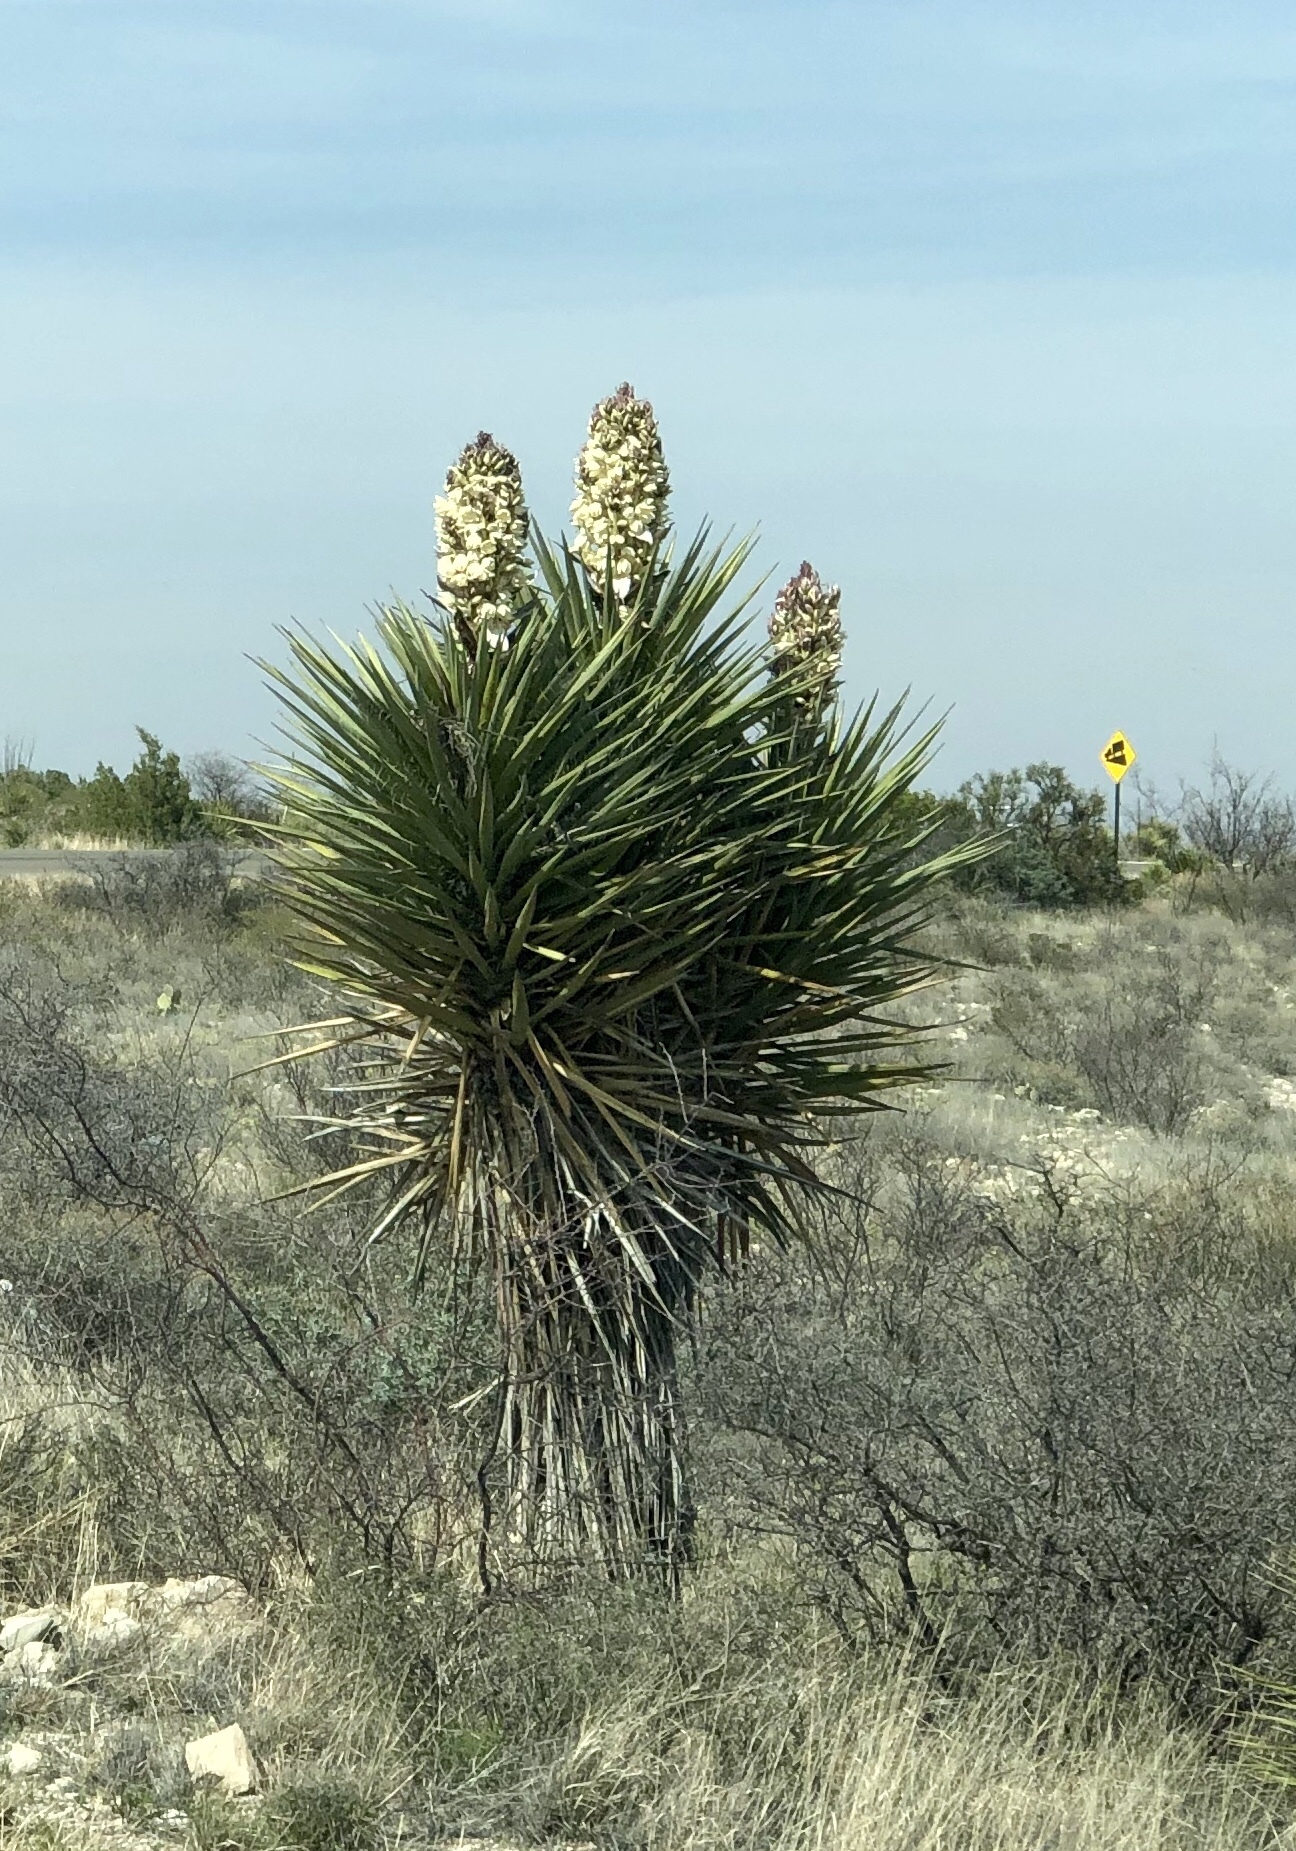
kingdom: Plantae
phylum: Tracheophyta
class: Liliopsida
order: Asparagales
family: Asparagaceae
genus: Yucca
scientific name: Yucca treculiana
